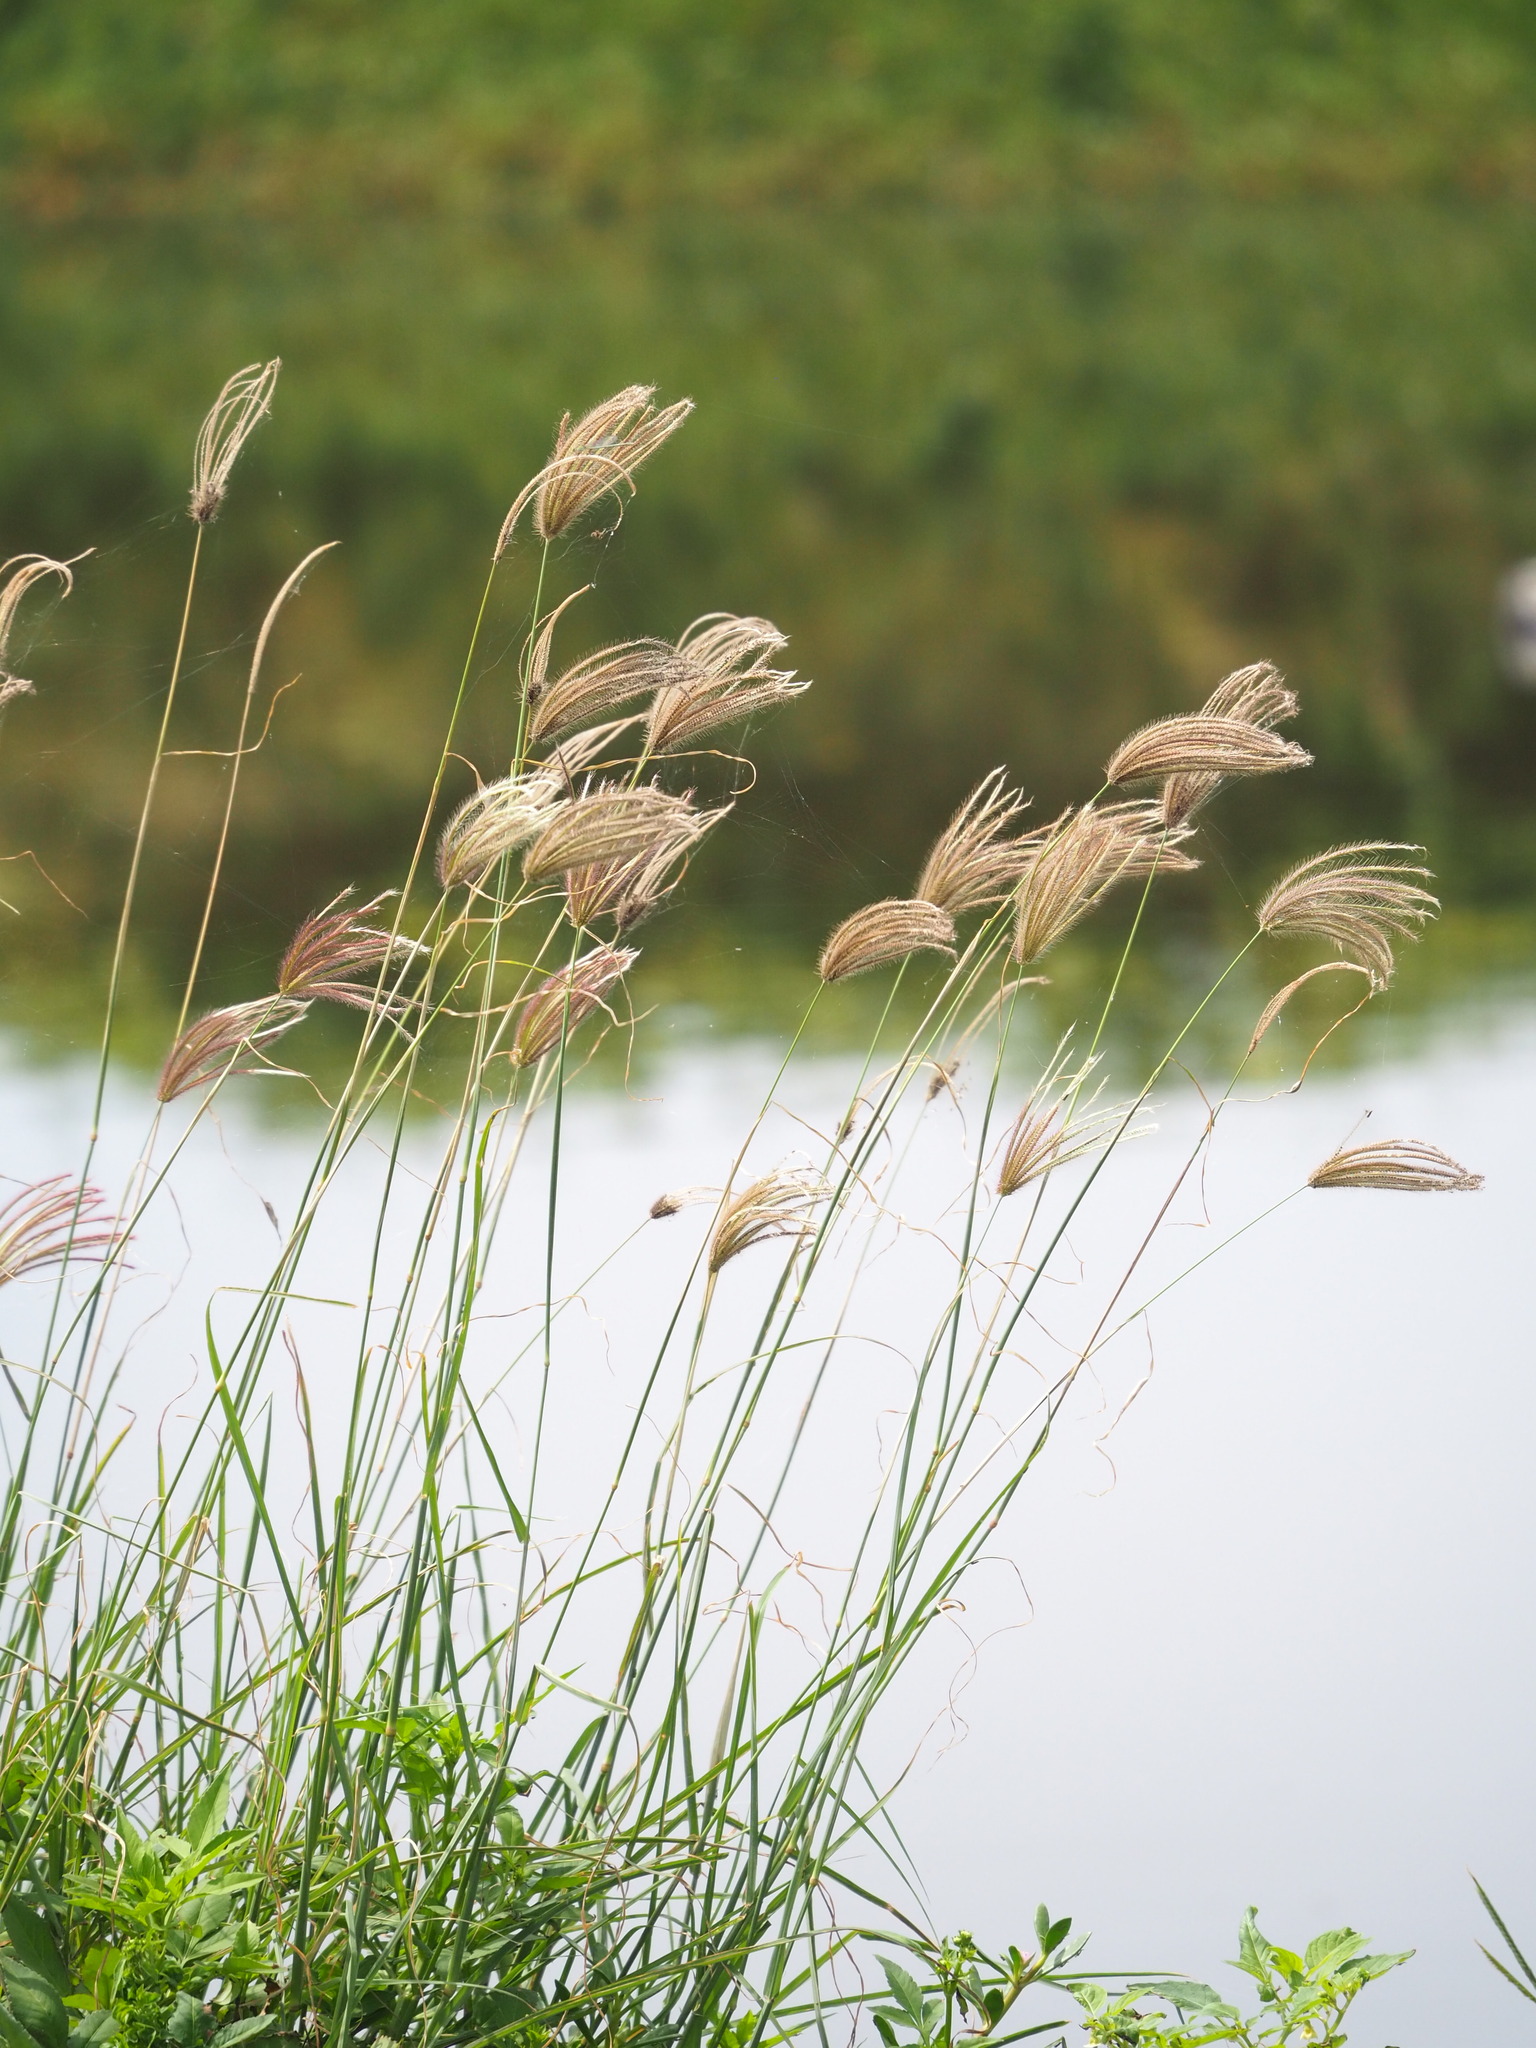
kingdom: Plantae
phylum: Tracheophyta
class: Liliopsida
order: Poales
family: Poaceae
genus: Chloris
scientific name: Chloris barbata
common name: Swollen fingergrass
